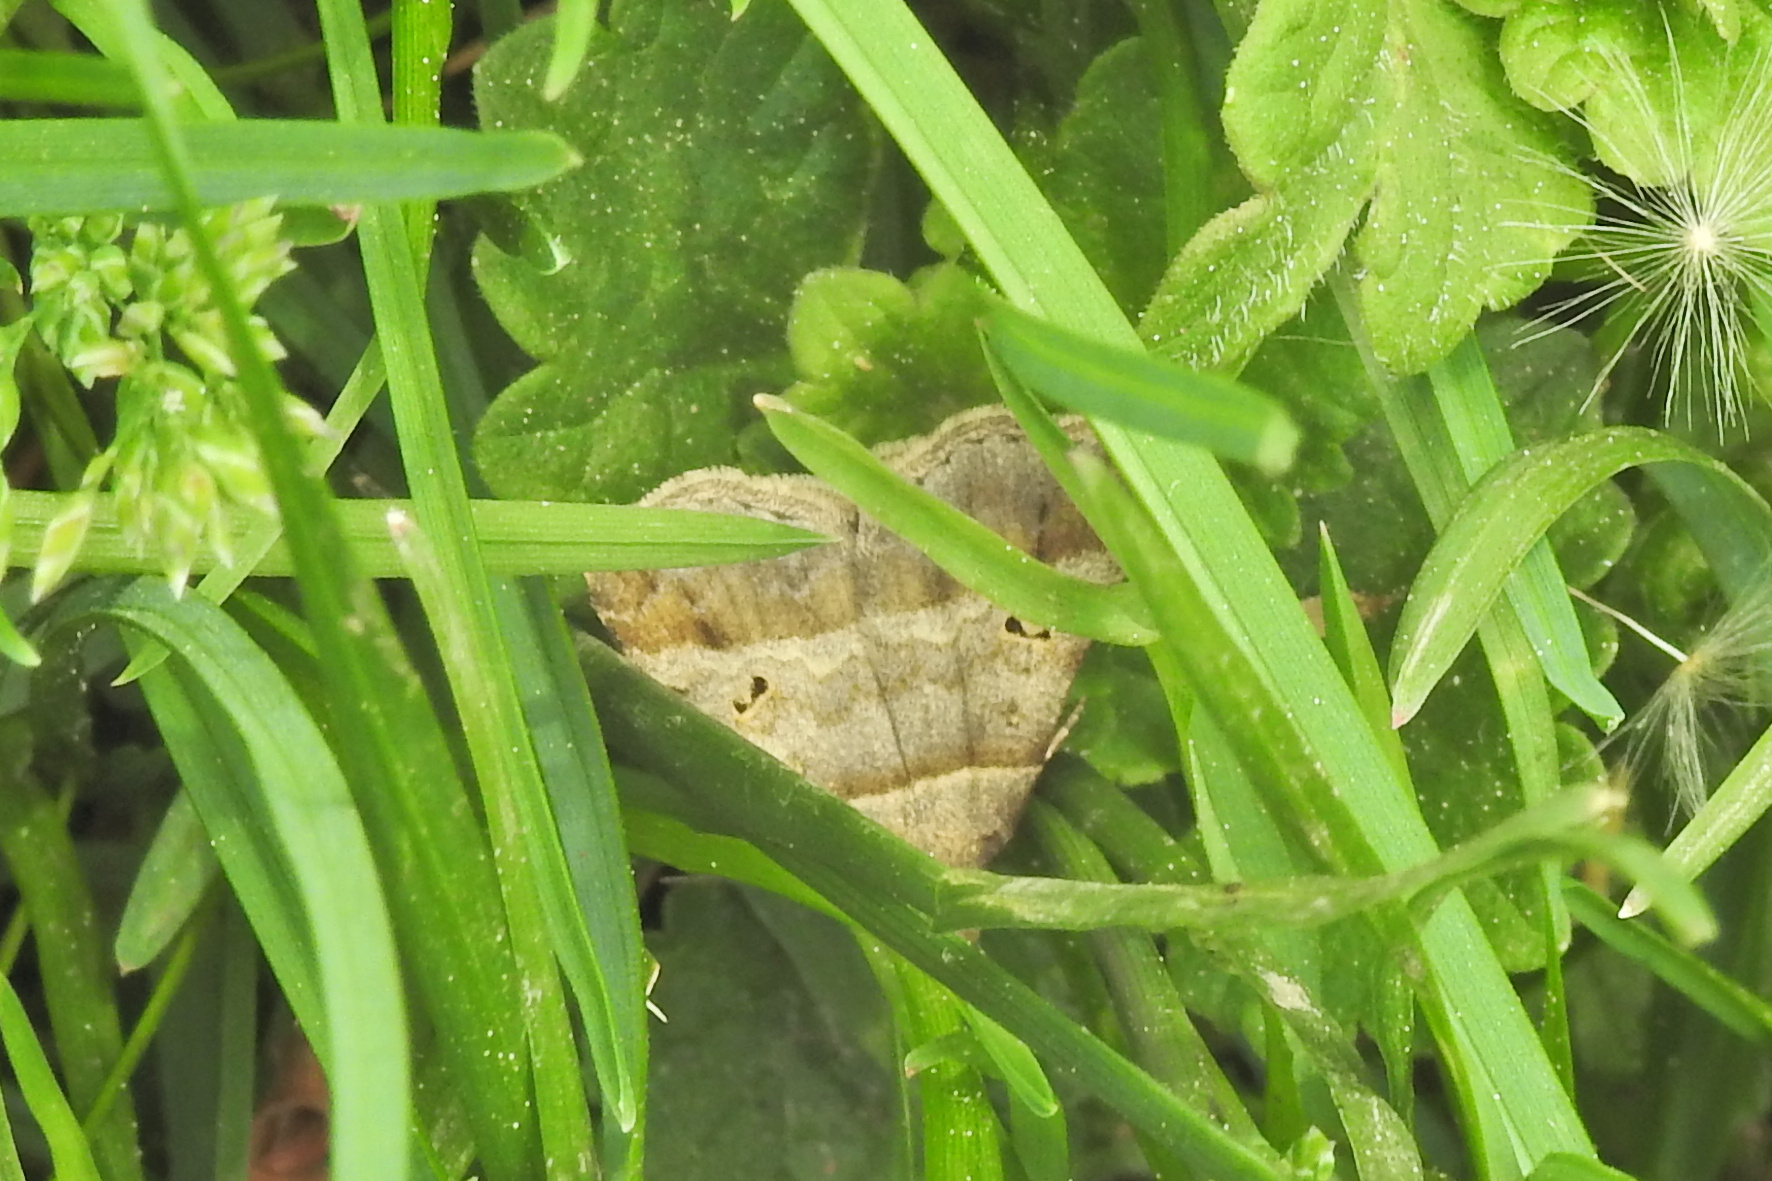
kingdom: Animalia
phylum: Arthropoda
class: Insecta
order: Lepidoptera
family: Erebidae
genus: Phaeolita
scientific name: Phaeolita pyramusalis
